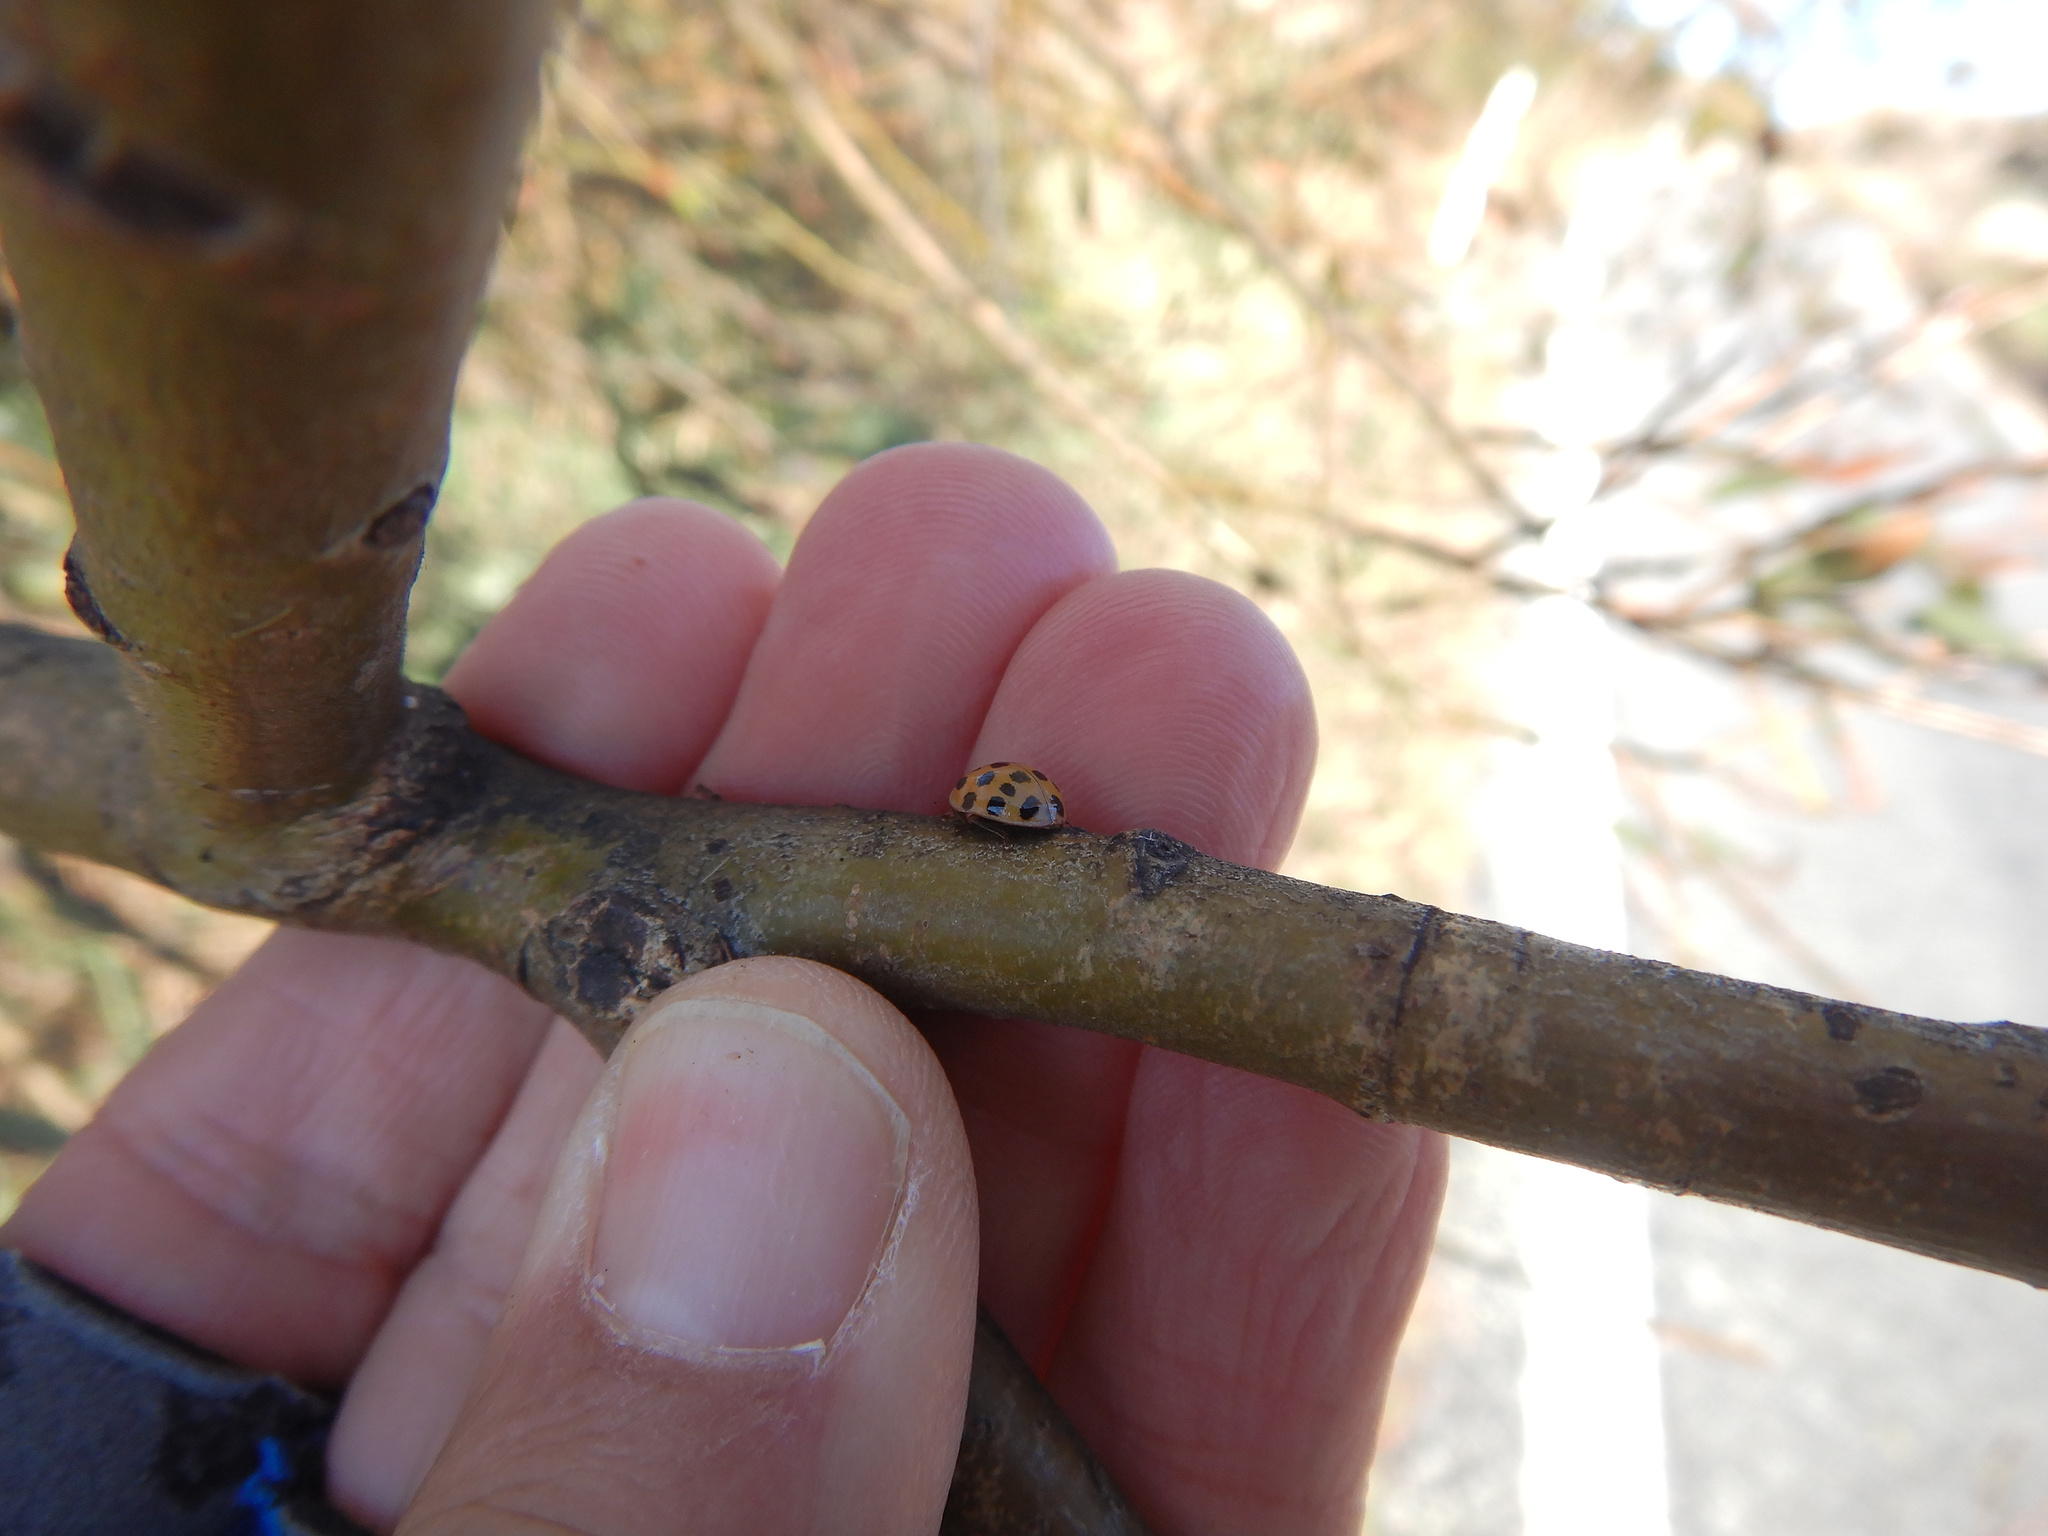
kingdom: Animalia
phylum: Arthropoda
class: Insecta
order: Coleoptera
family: Coccinellidae
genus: Harmonia
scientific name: Harmonia axyridis
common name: Harlequin ladybird
